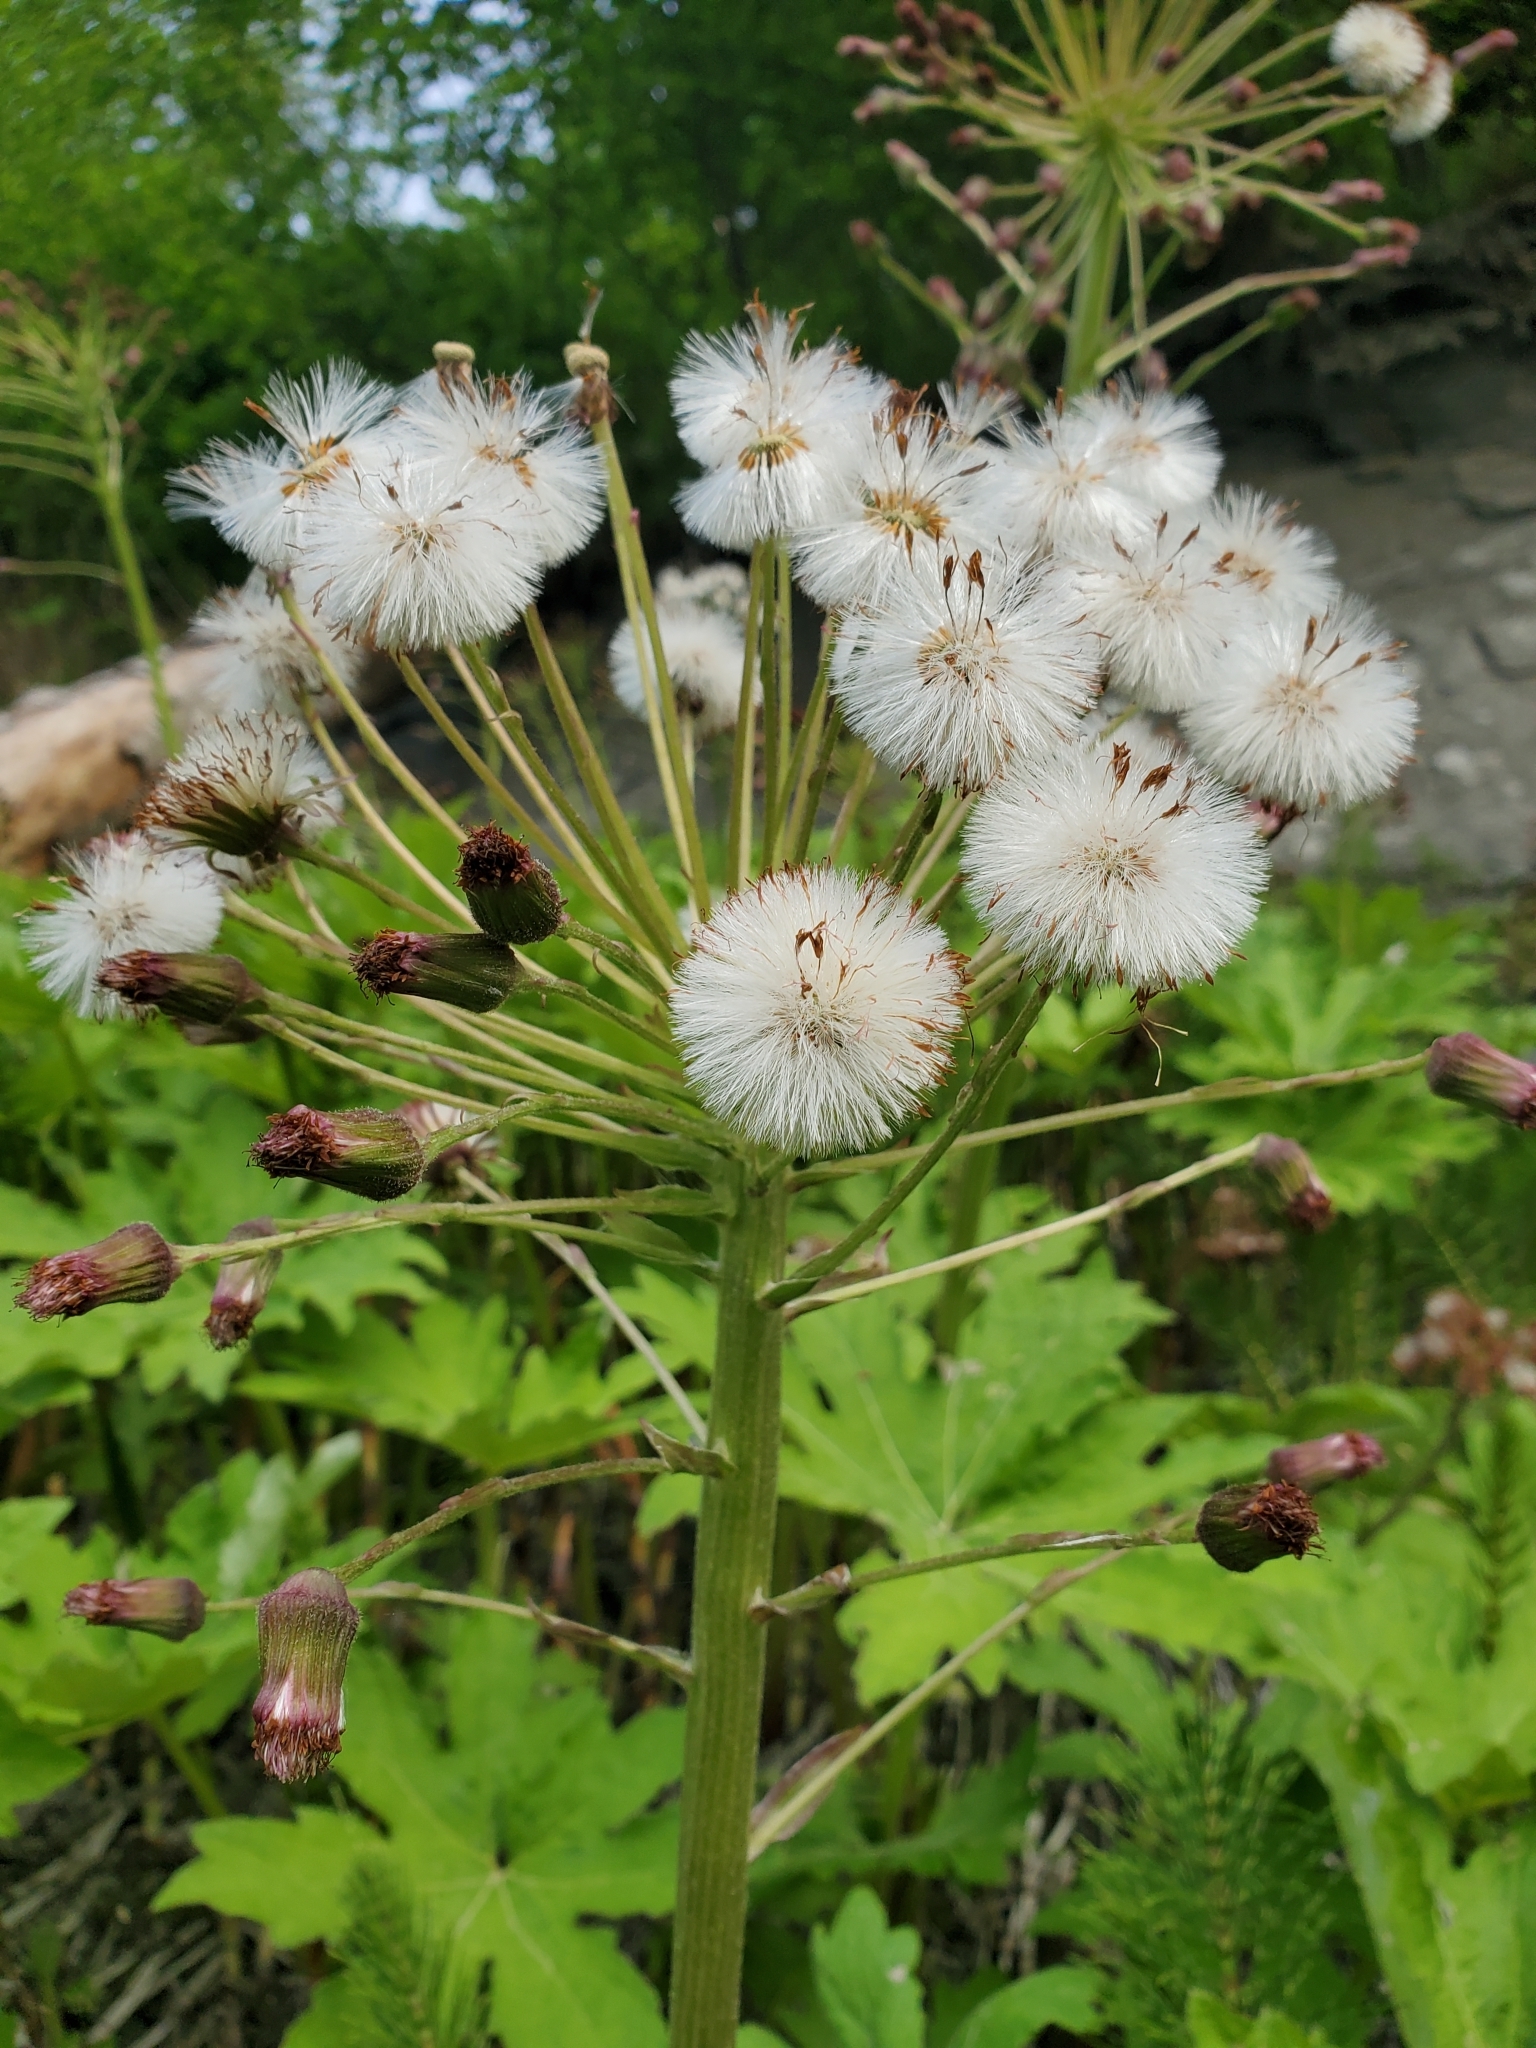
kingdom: Plantae
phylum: Tracheophyta
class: Magnoliopsida
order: Asterales
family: Asteraceae
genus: Petasites
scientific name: Petasites frigidus
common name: Arctic butterbur
